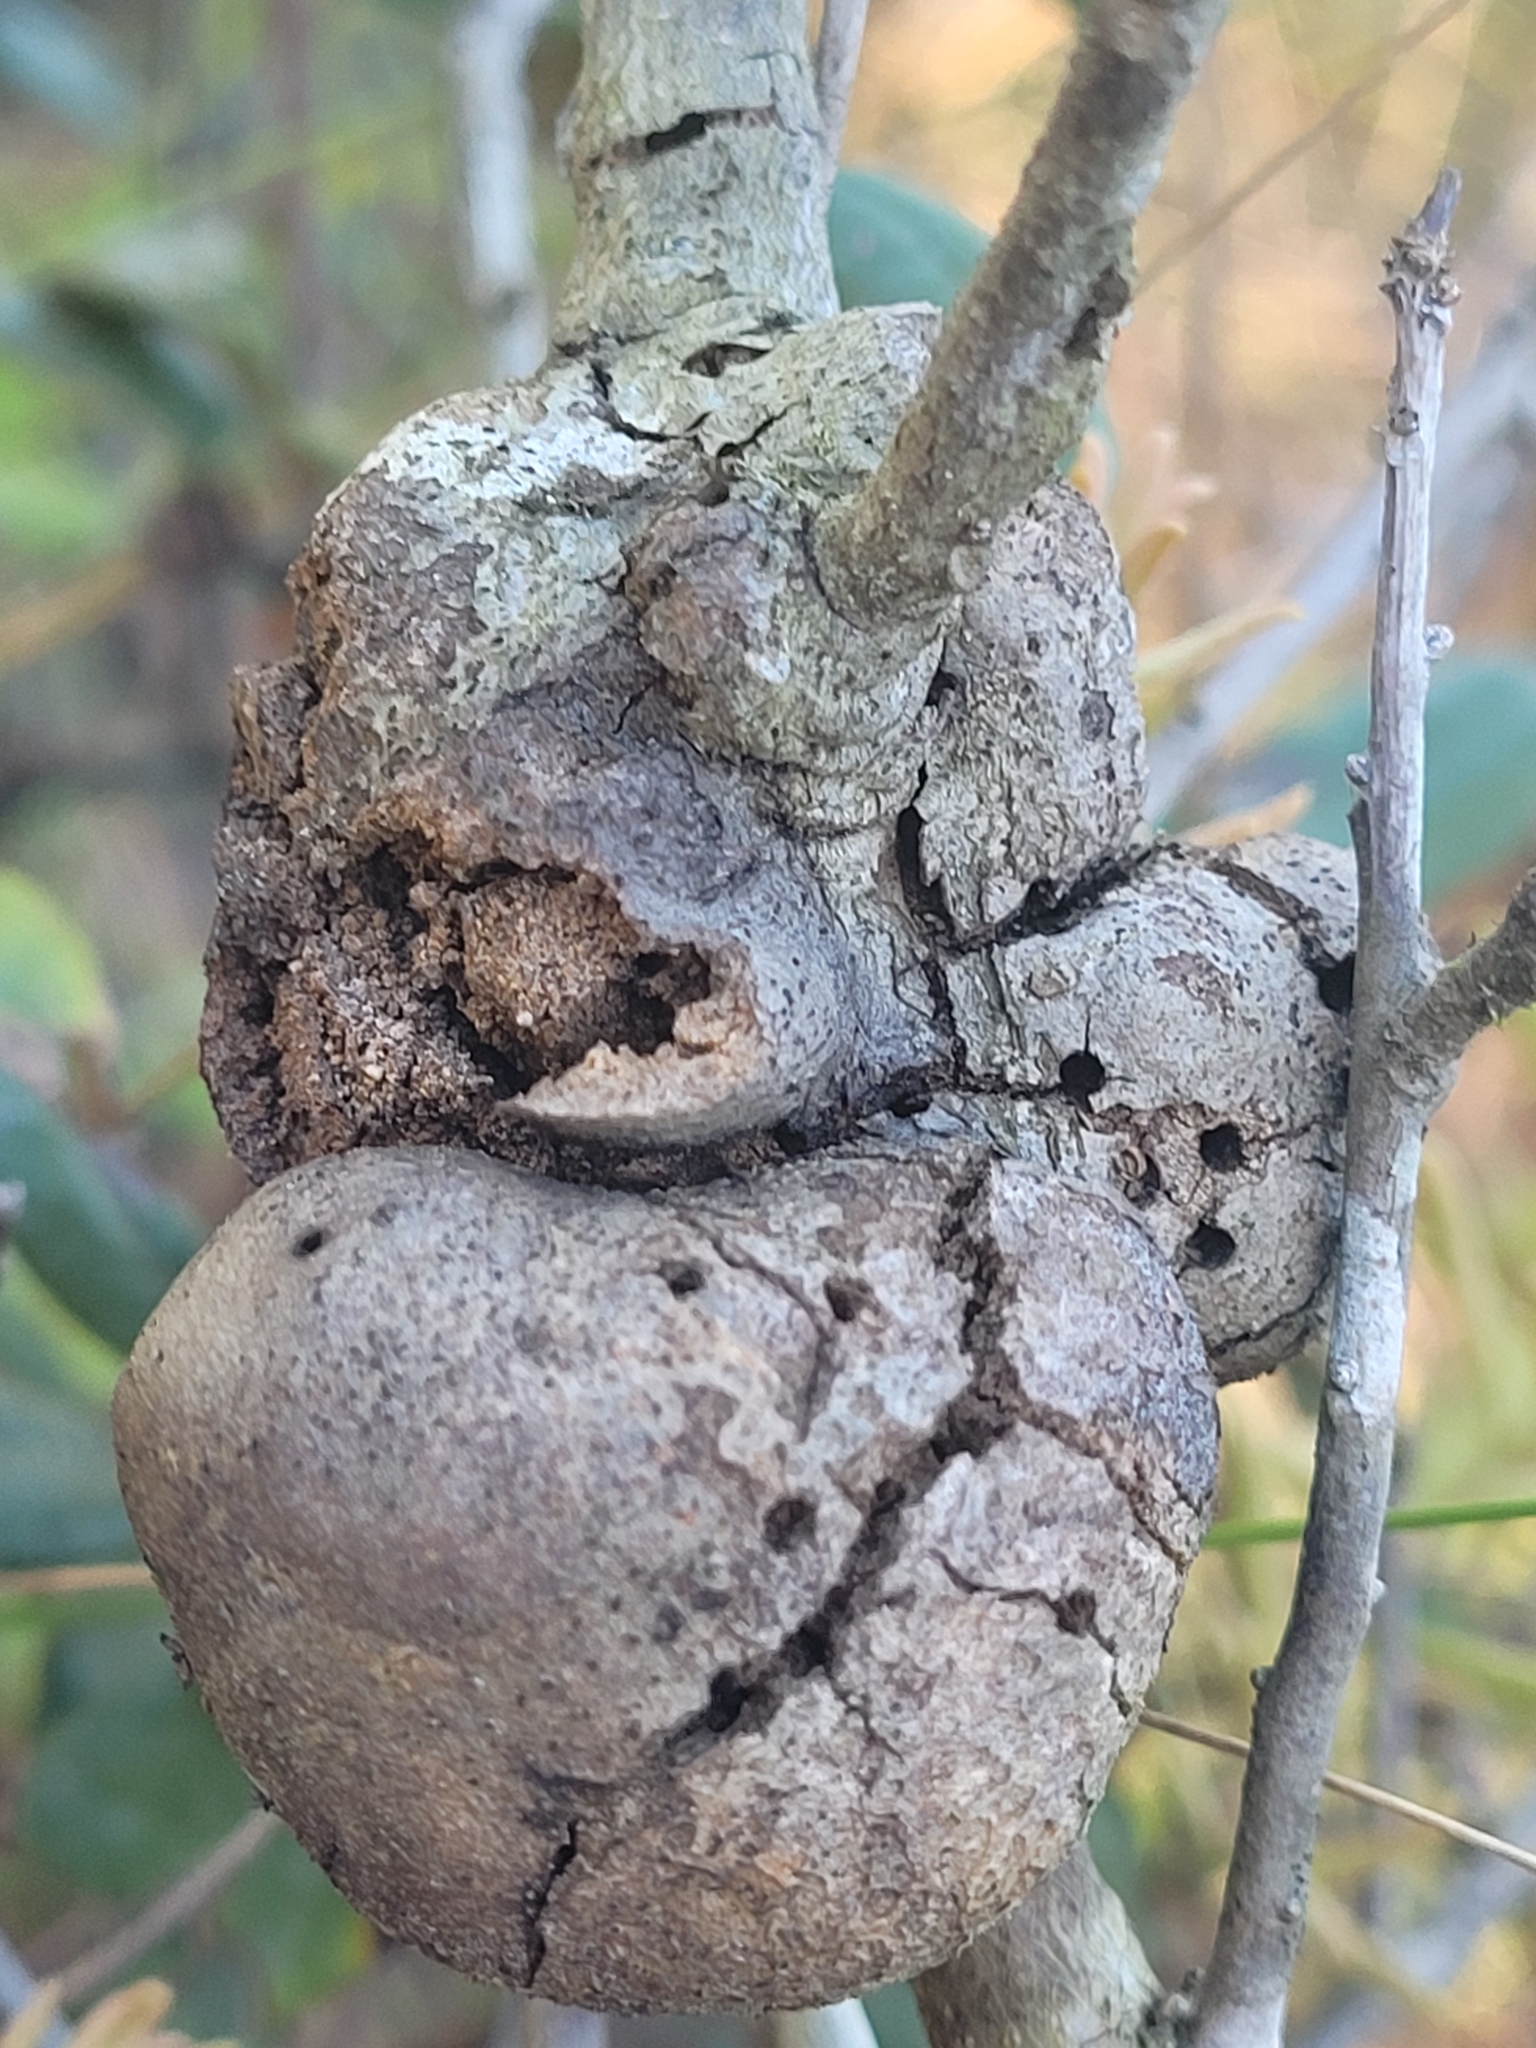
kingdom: Animalia
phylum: Arthropoda
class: Insecta
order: Hymenoptera
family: Cynipidae
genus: Callirhytis
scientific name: Callirhytis
